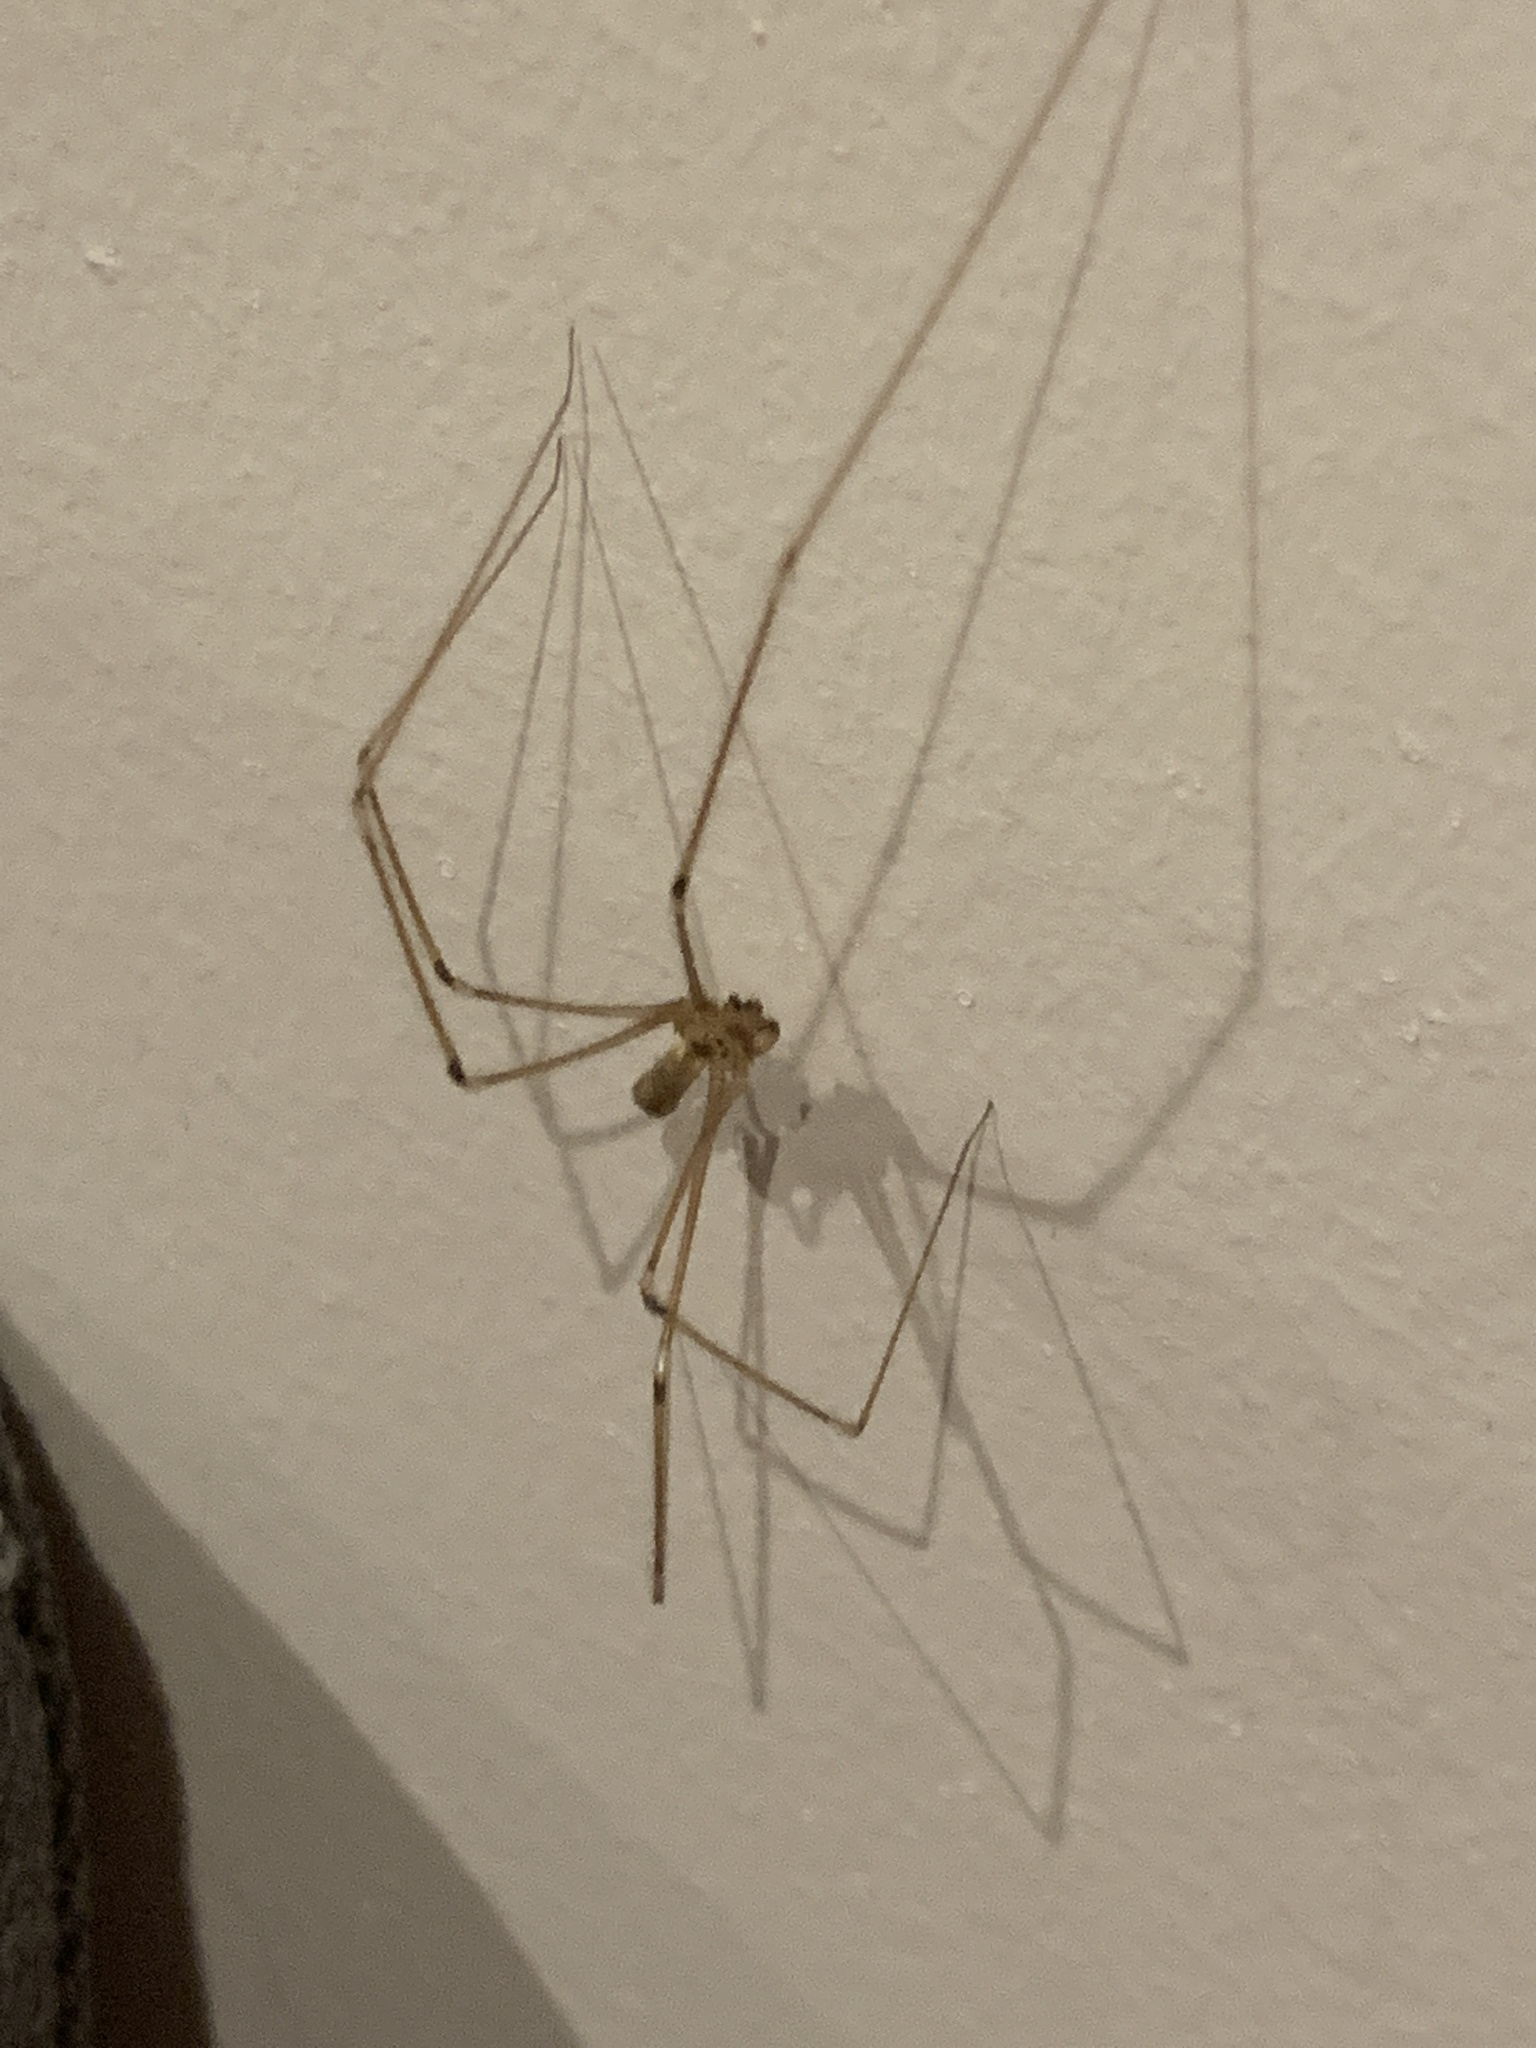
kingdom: Animalia
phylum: Arthropoda
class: Arachnida
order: Araneae
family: Pholcidae
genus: Pholcus
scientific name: Pholcus phalangioides
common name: Longbodied cellar spider
